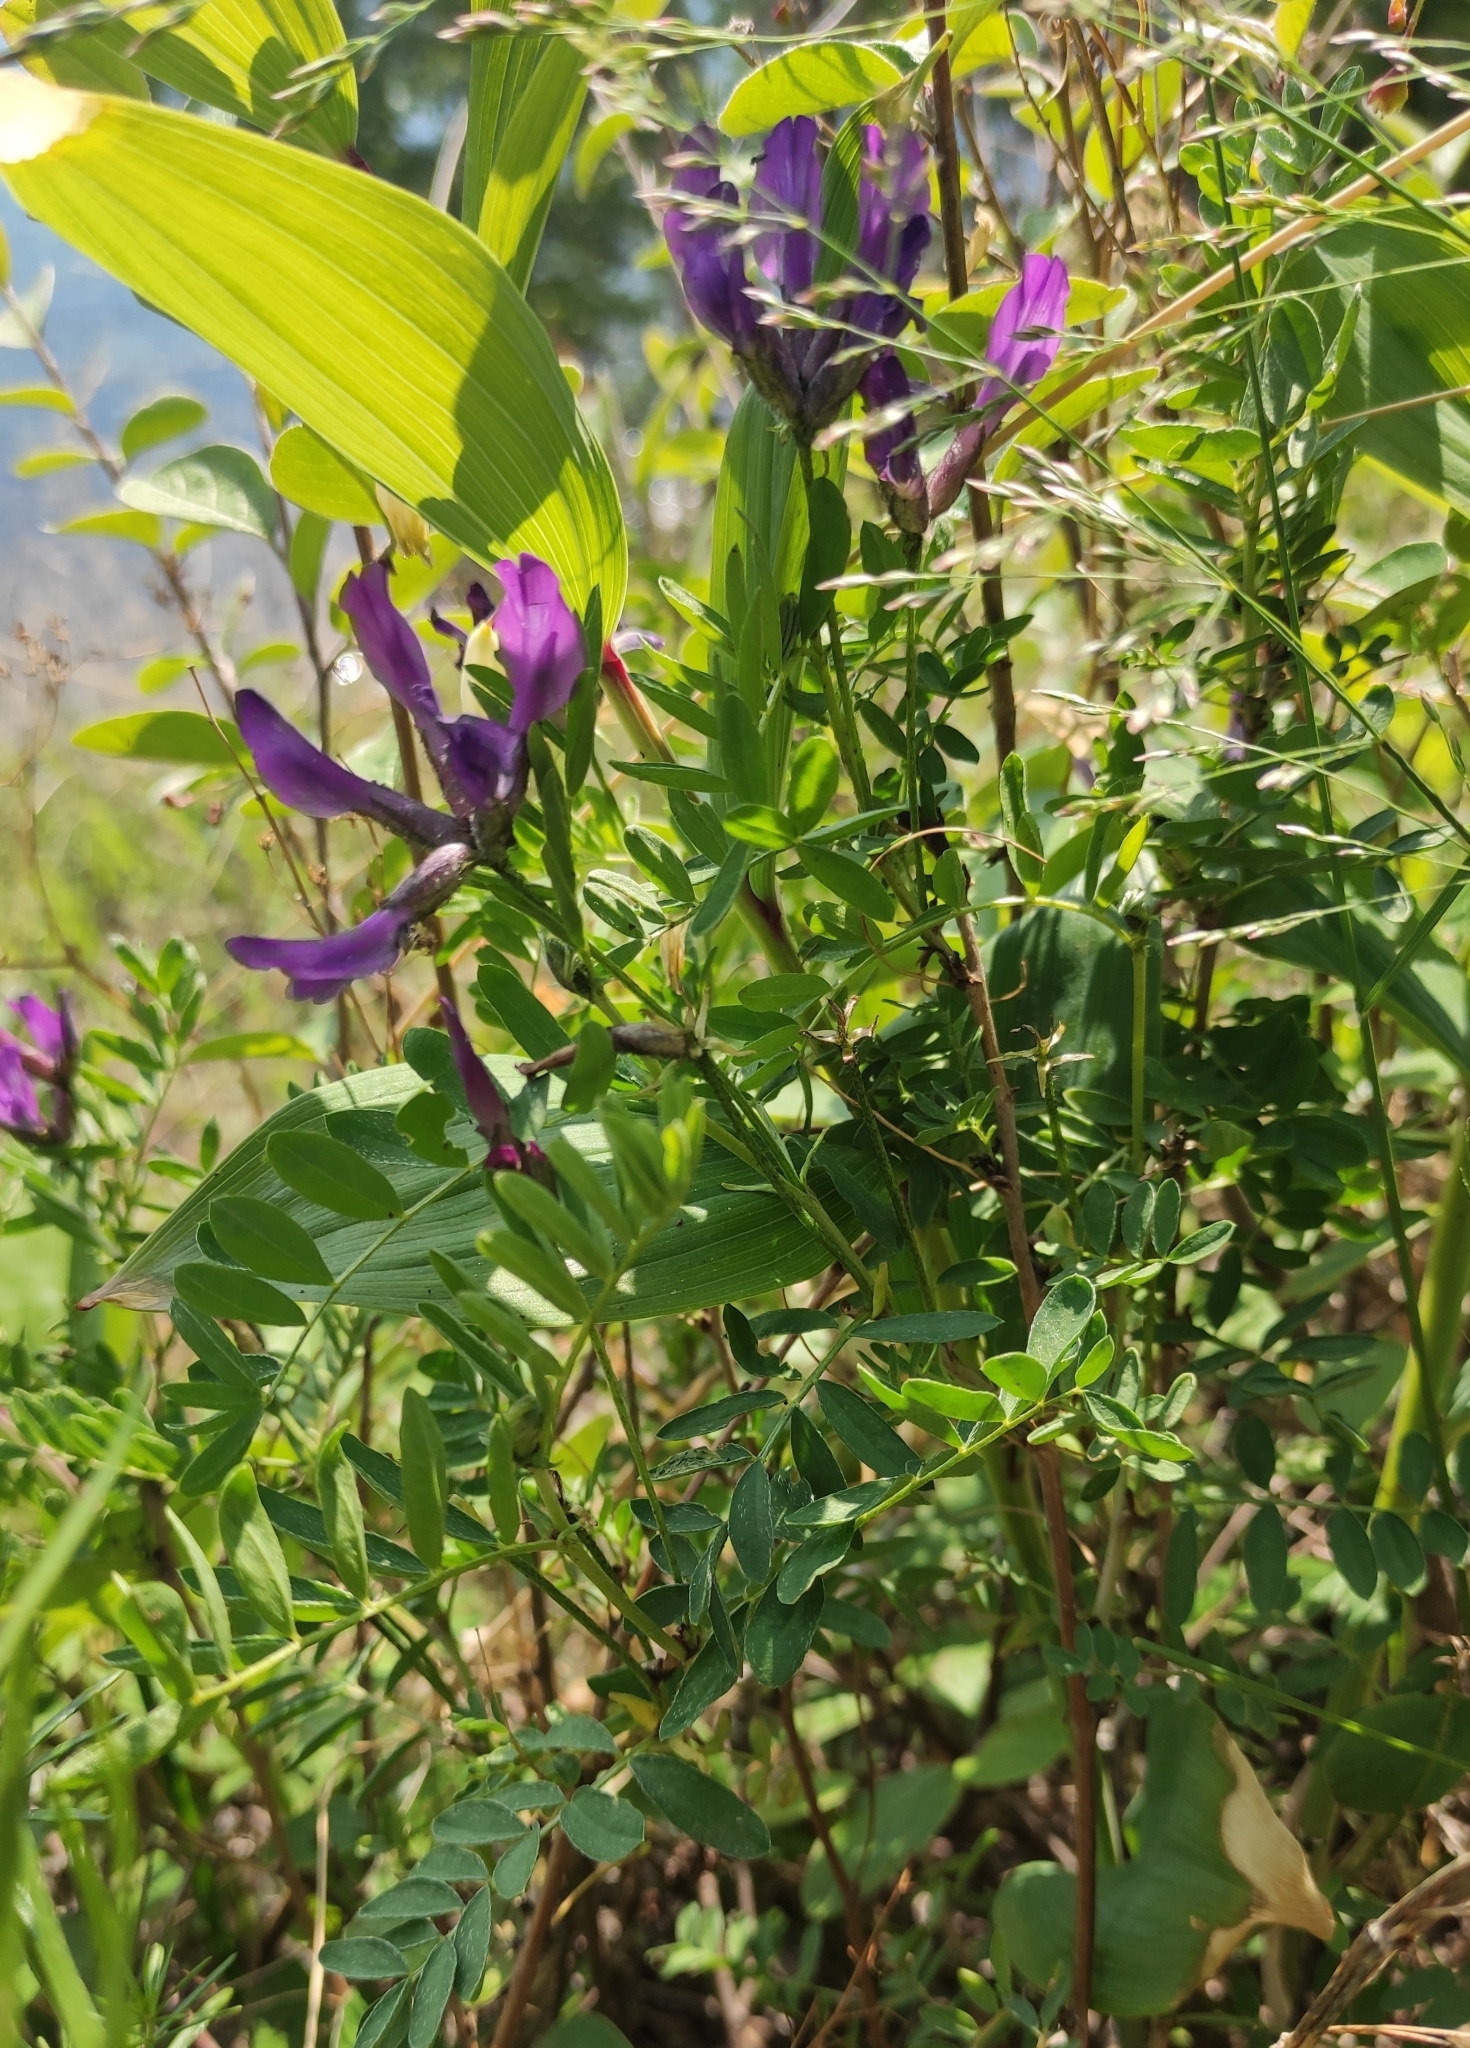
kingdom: Plantae
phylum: Tracheophyta
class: Magnoliopsida
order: Fabales
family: Fabaceae
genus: Astragalus
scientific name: Astragalus syriacus
